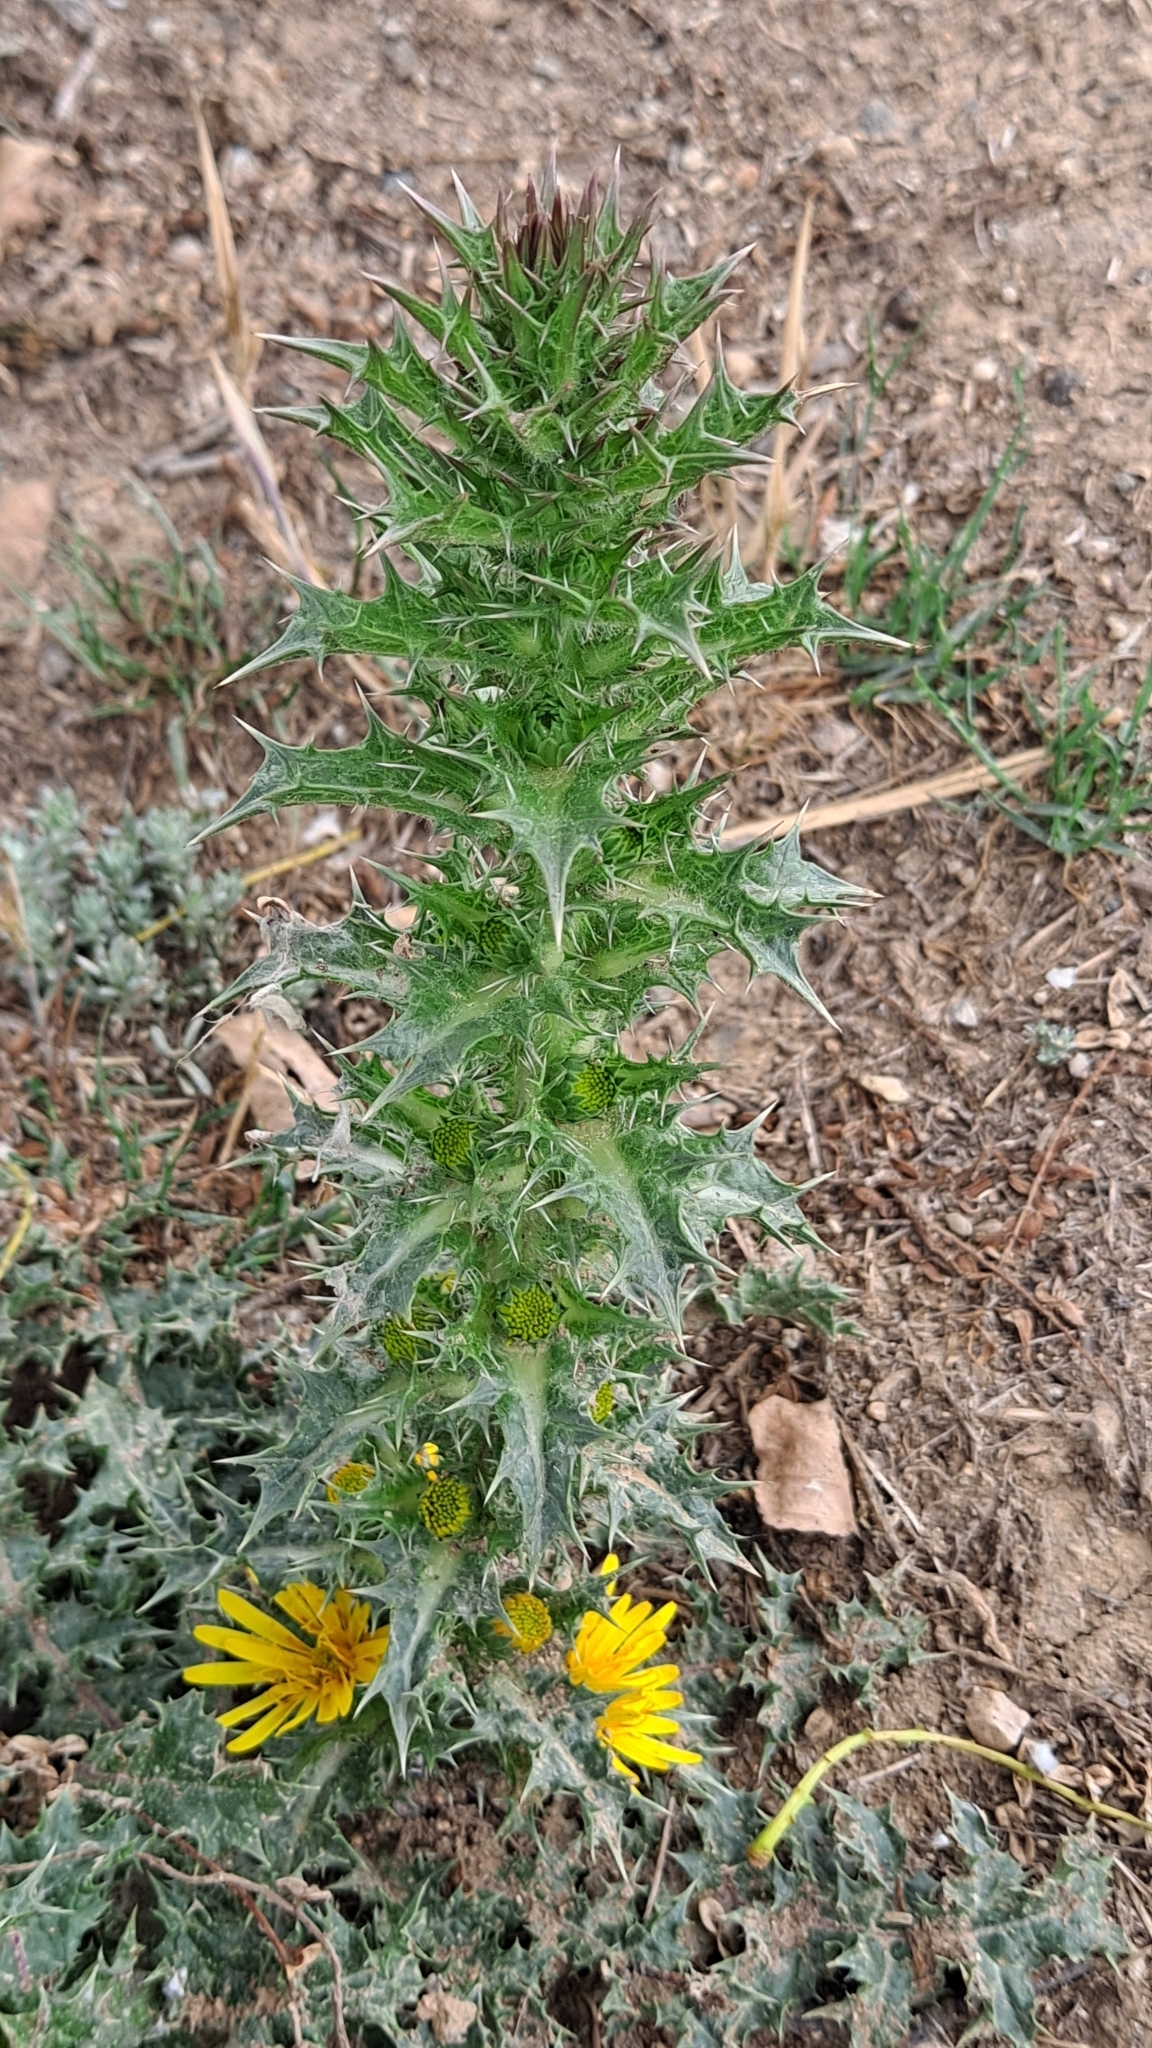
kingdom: Plantae
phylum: Tracheophyta
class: Magnoliopsida
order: Asterales
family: Asteraceae
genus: Scolymus
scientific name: Scolymus hispanicus
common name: Golden thistle
